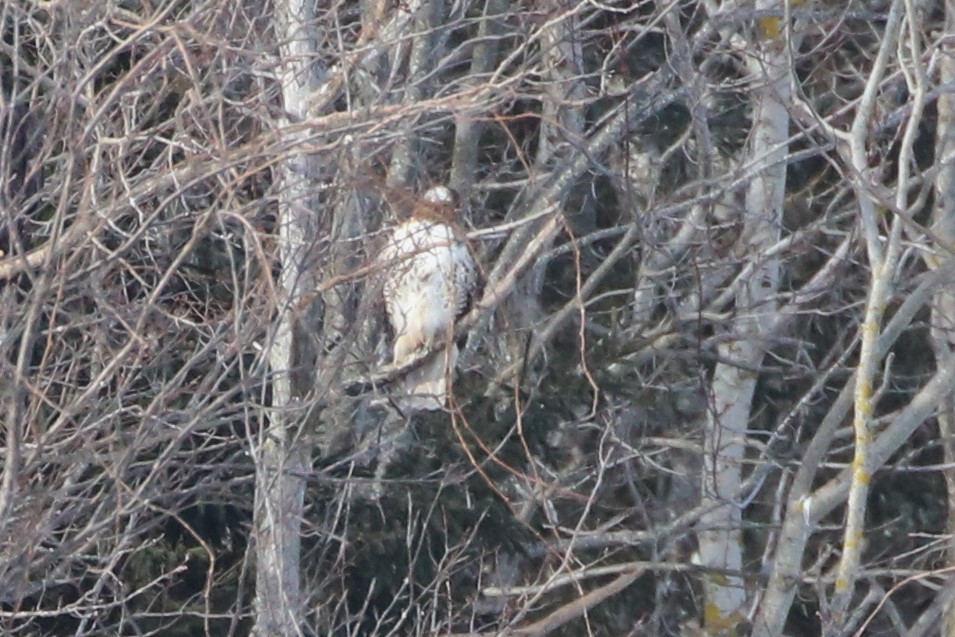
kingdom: Animalia
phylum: Chordata
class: Aves
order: Accipitriformes
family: Accipitridae
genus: Buteo
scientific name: Buteo jamaicensis
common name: Red-tailed hawk
